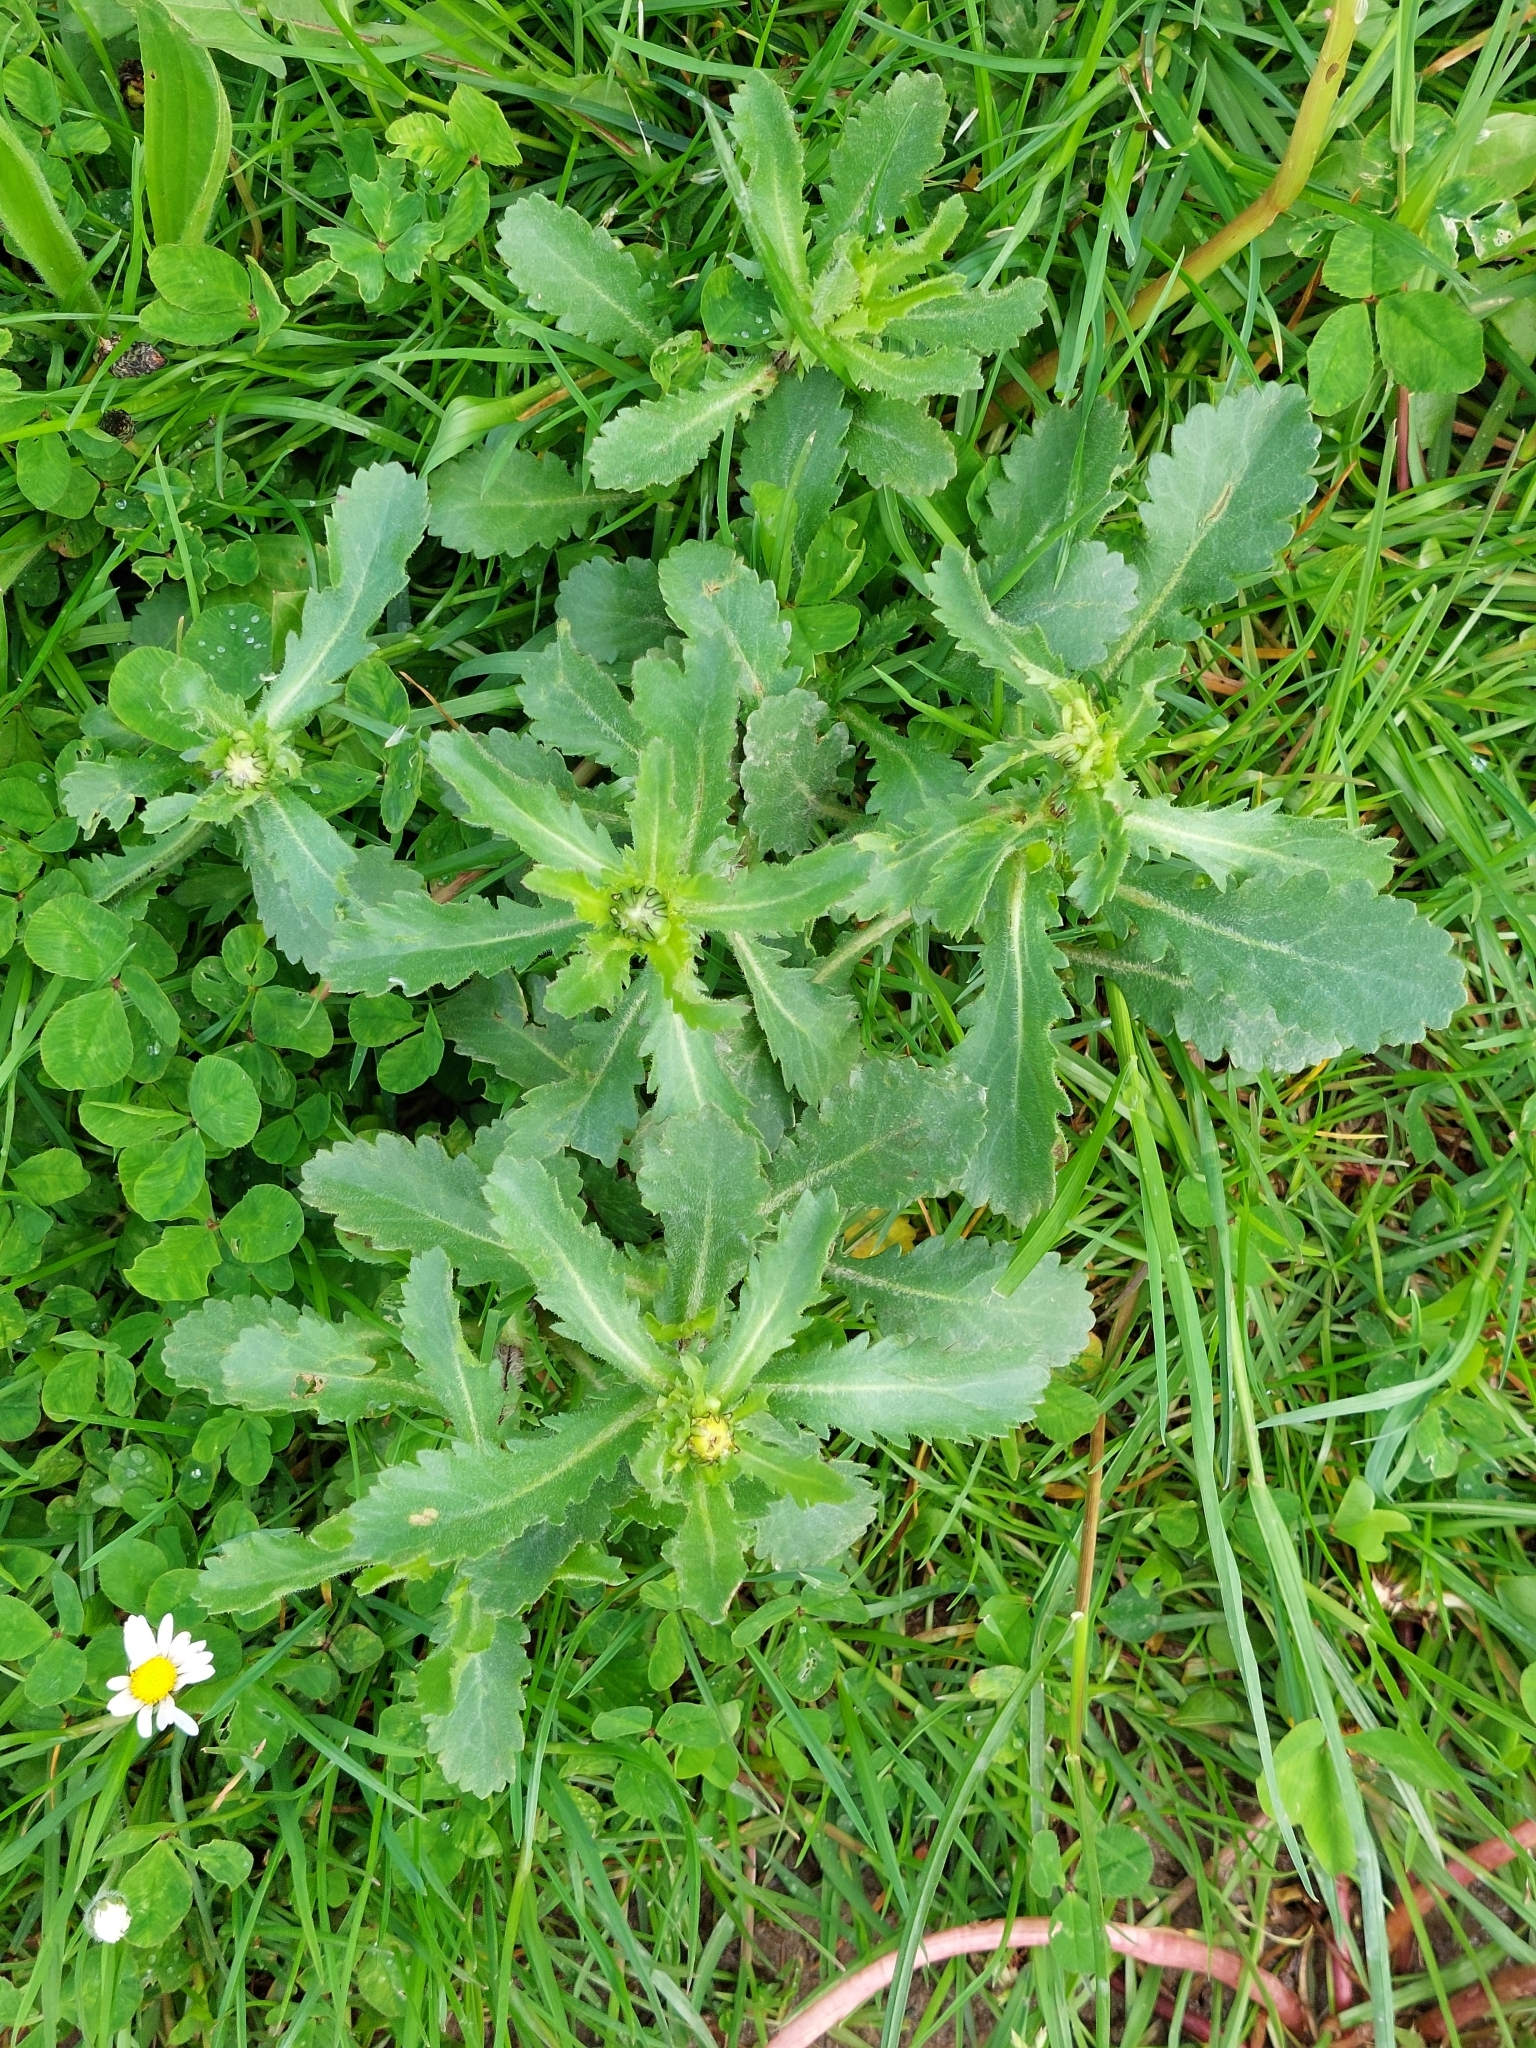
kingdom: Plantae
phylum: Tracheophyta
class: Magnoliopsida
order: Asterales
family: Asteraceae
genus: Leucanthemum
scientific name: Leucanthemum vulgare
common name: Oxeye daisy
